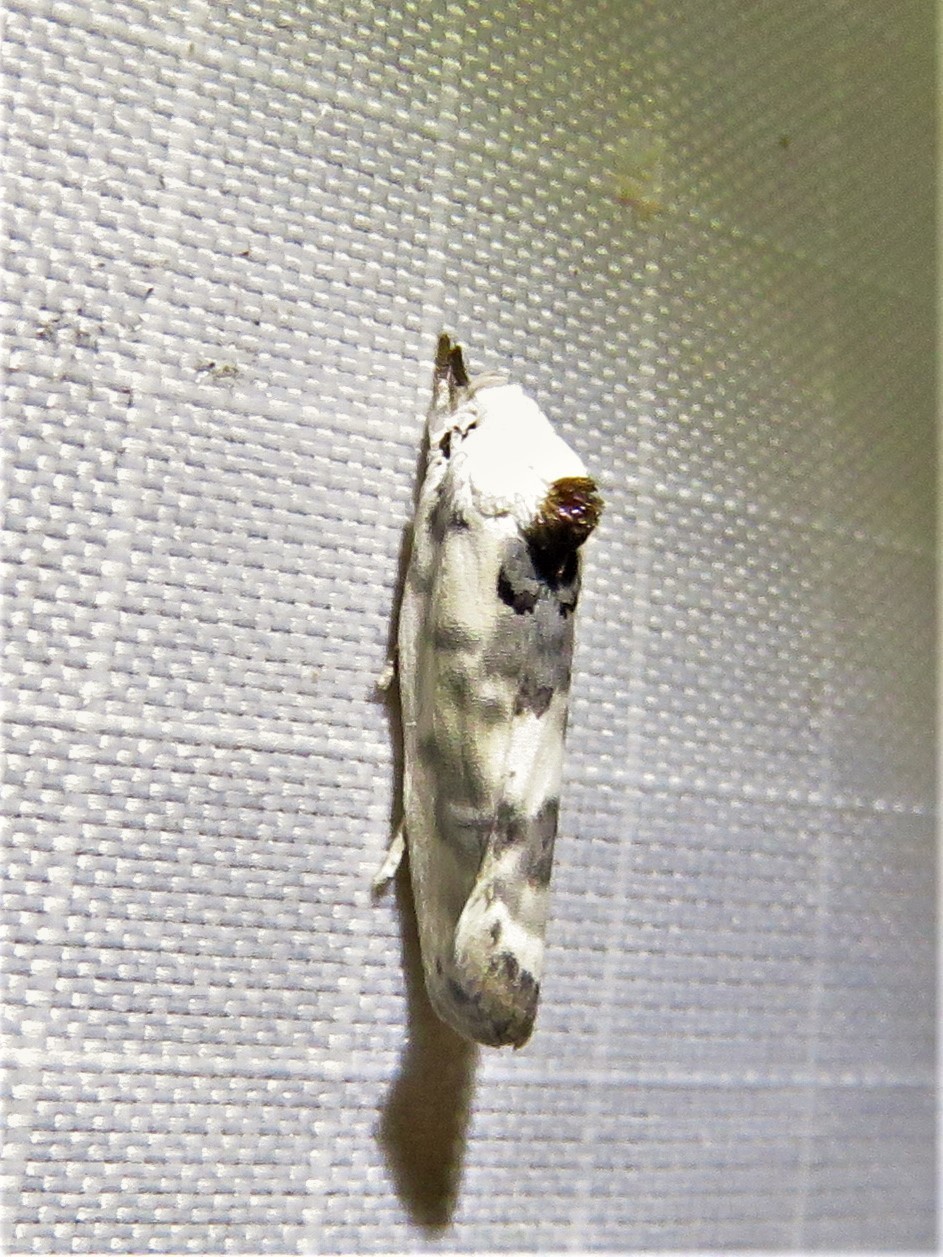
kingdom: Animalia
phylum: Arthropoda
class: Insecta
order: Lepidoptera
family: Depressariidae
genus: Antaeotricha
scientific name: Antaeotricha leucillana
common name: Pale gray bird-dropping moth
